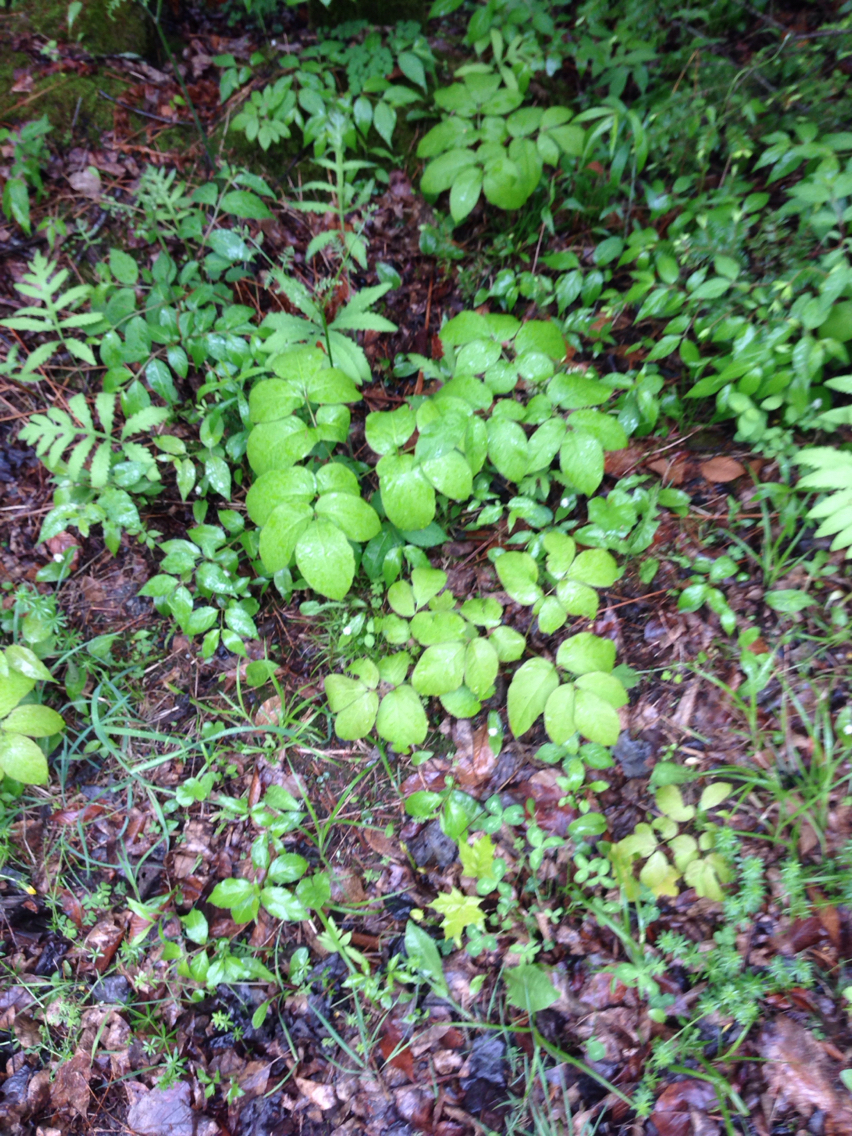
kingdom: Plantae
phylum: Tracheophyta
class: Magnoliopsida
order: Apiales
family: Araliaceae
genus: Aralia
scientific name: Aralia nudicaulis
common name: Wild sarsaparilla
